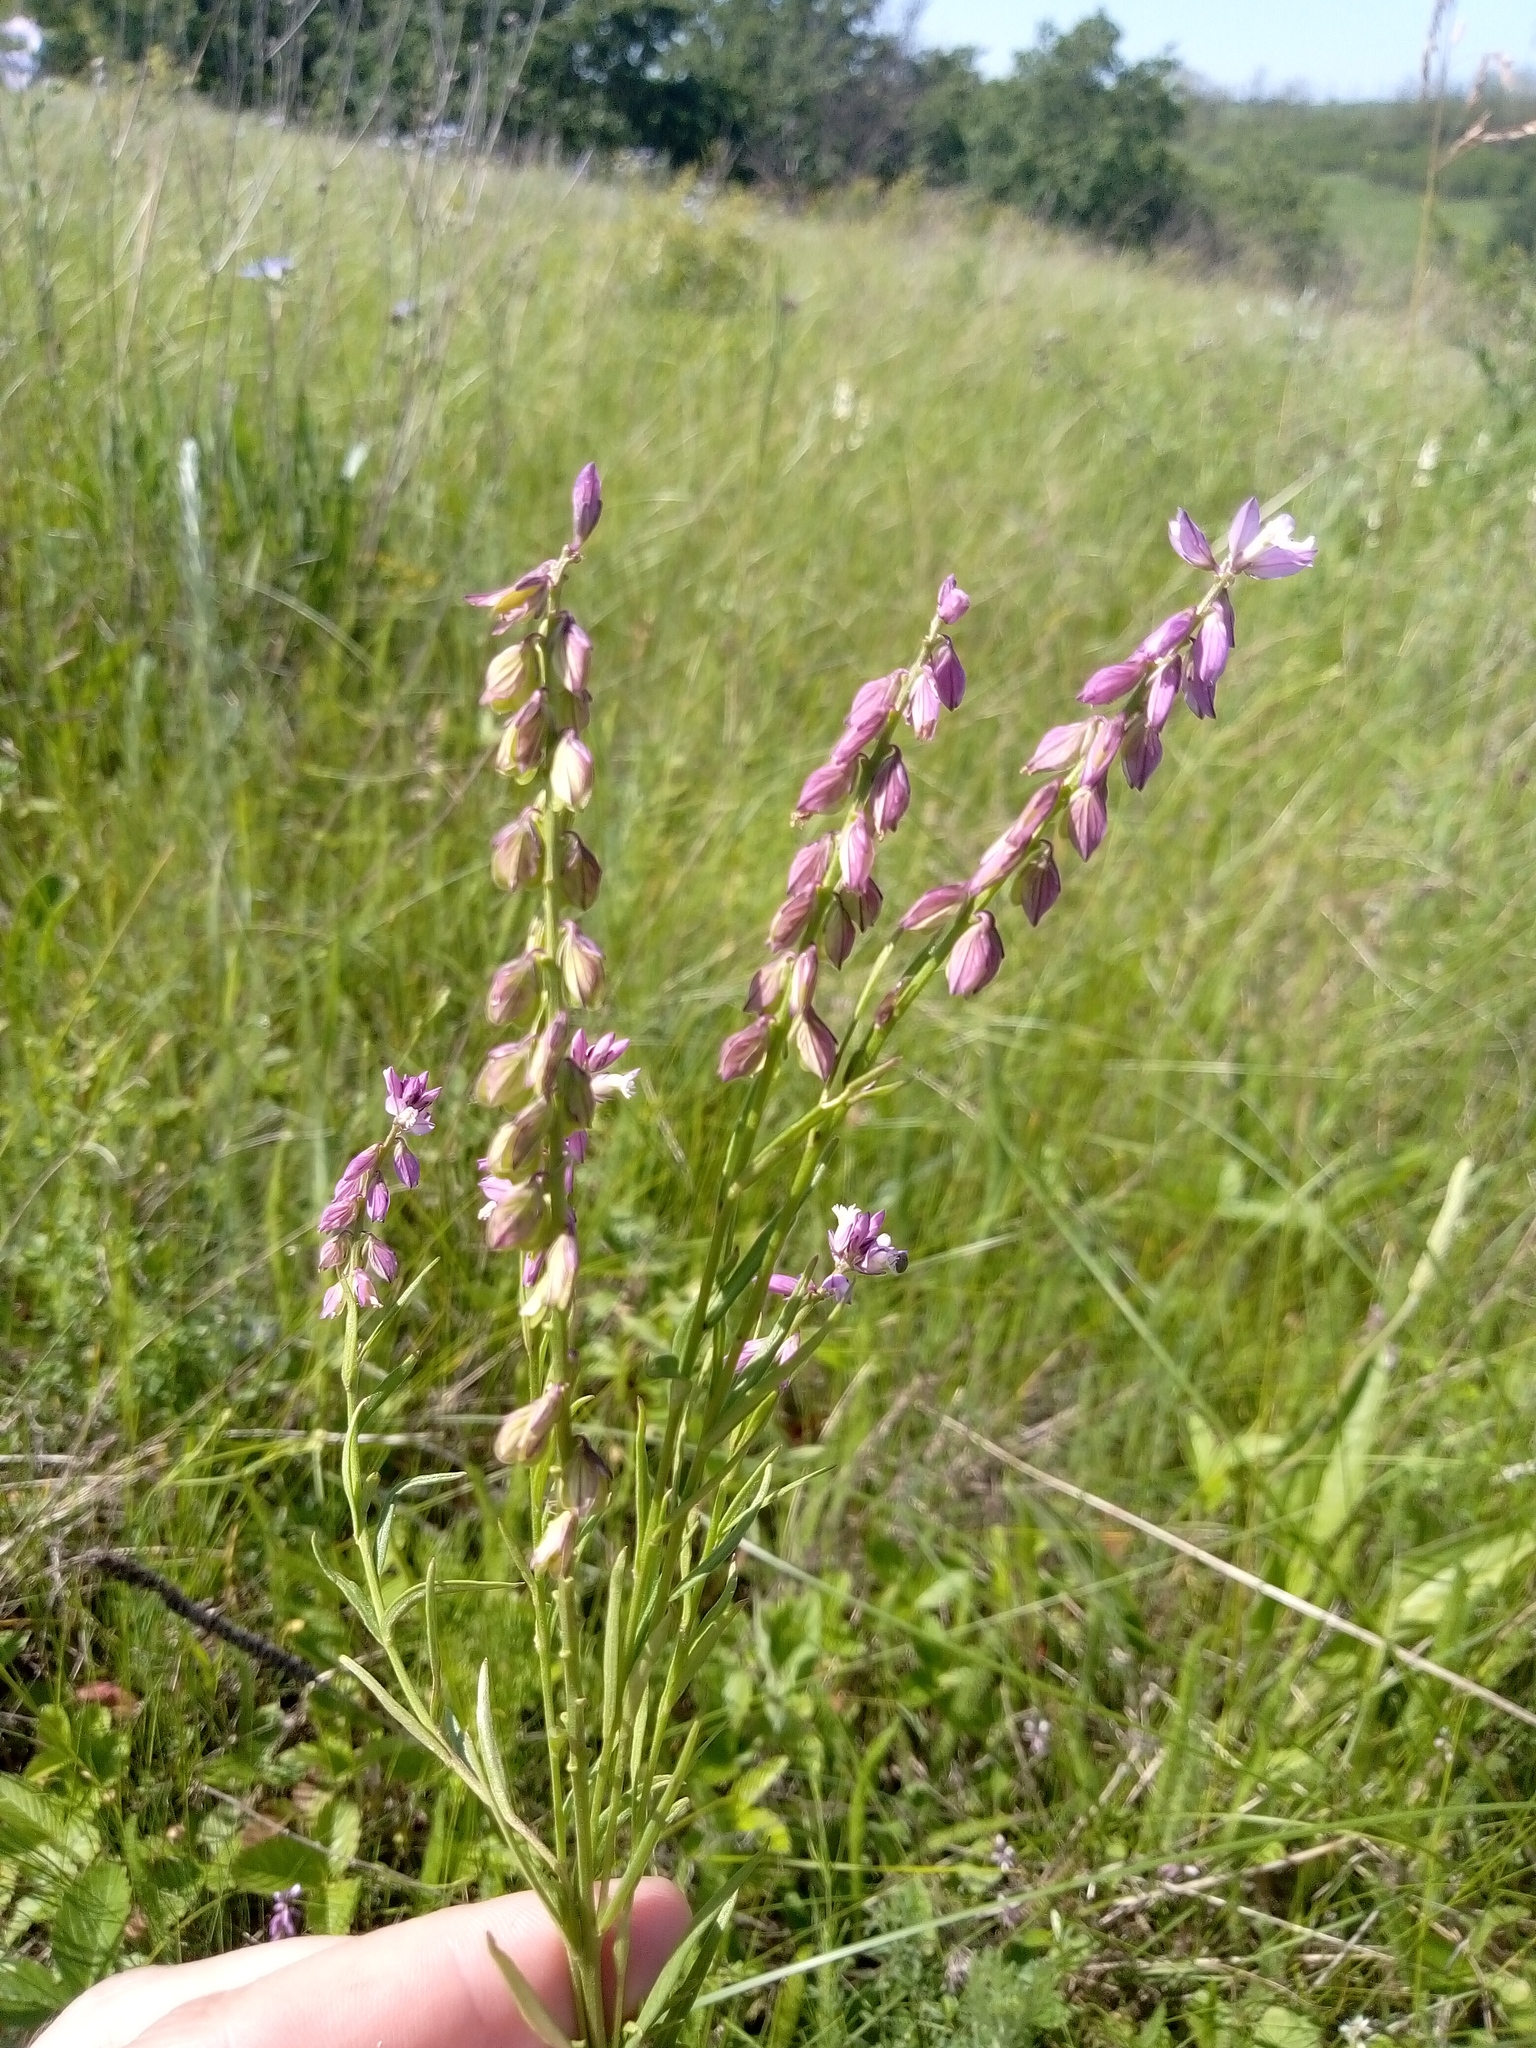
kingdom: Plantae
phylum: Tracheophyta
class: Magnoliopsida
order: Fabales
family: Polygalaceae
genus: Polygala
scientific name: Polygala comosa
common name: Tufted milkwort
